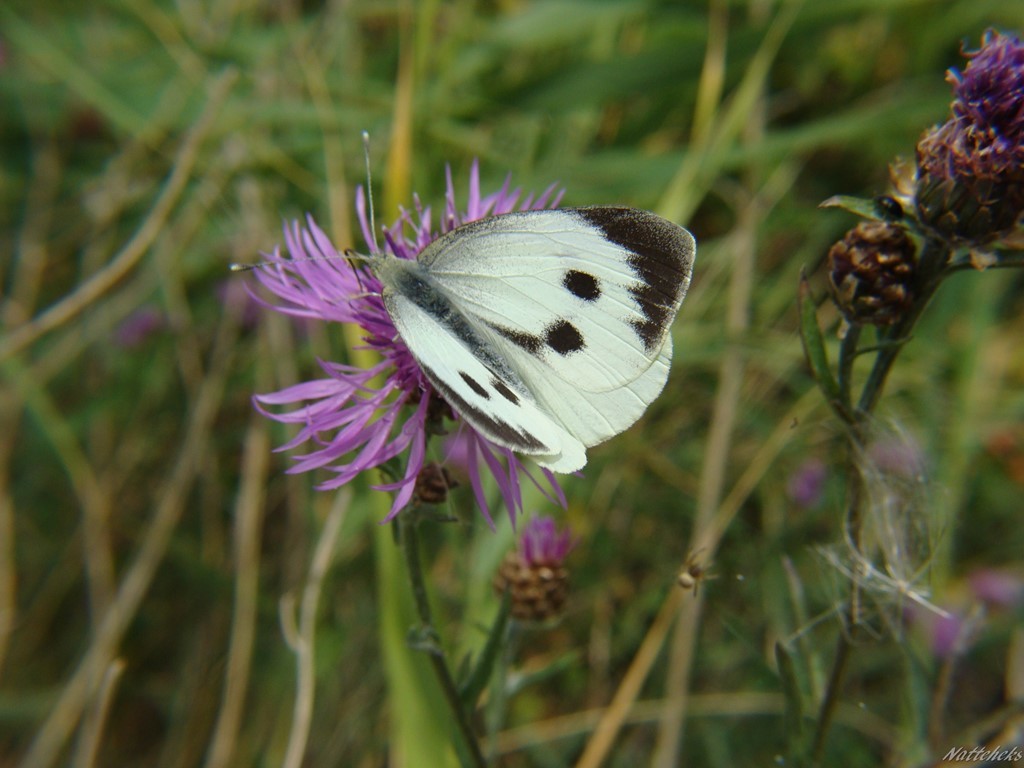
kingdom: Animalia
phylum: Arthropoda
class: Insecta
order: Lepidoptera
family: Pieridae
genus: Pieris
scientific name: Pieris brassicae
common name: Large white
